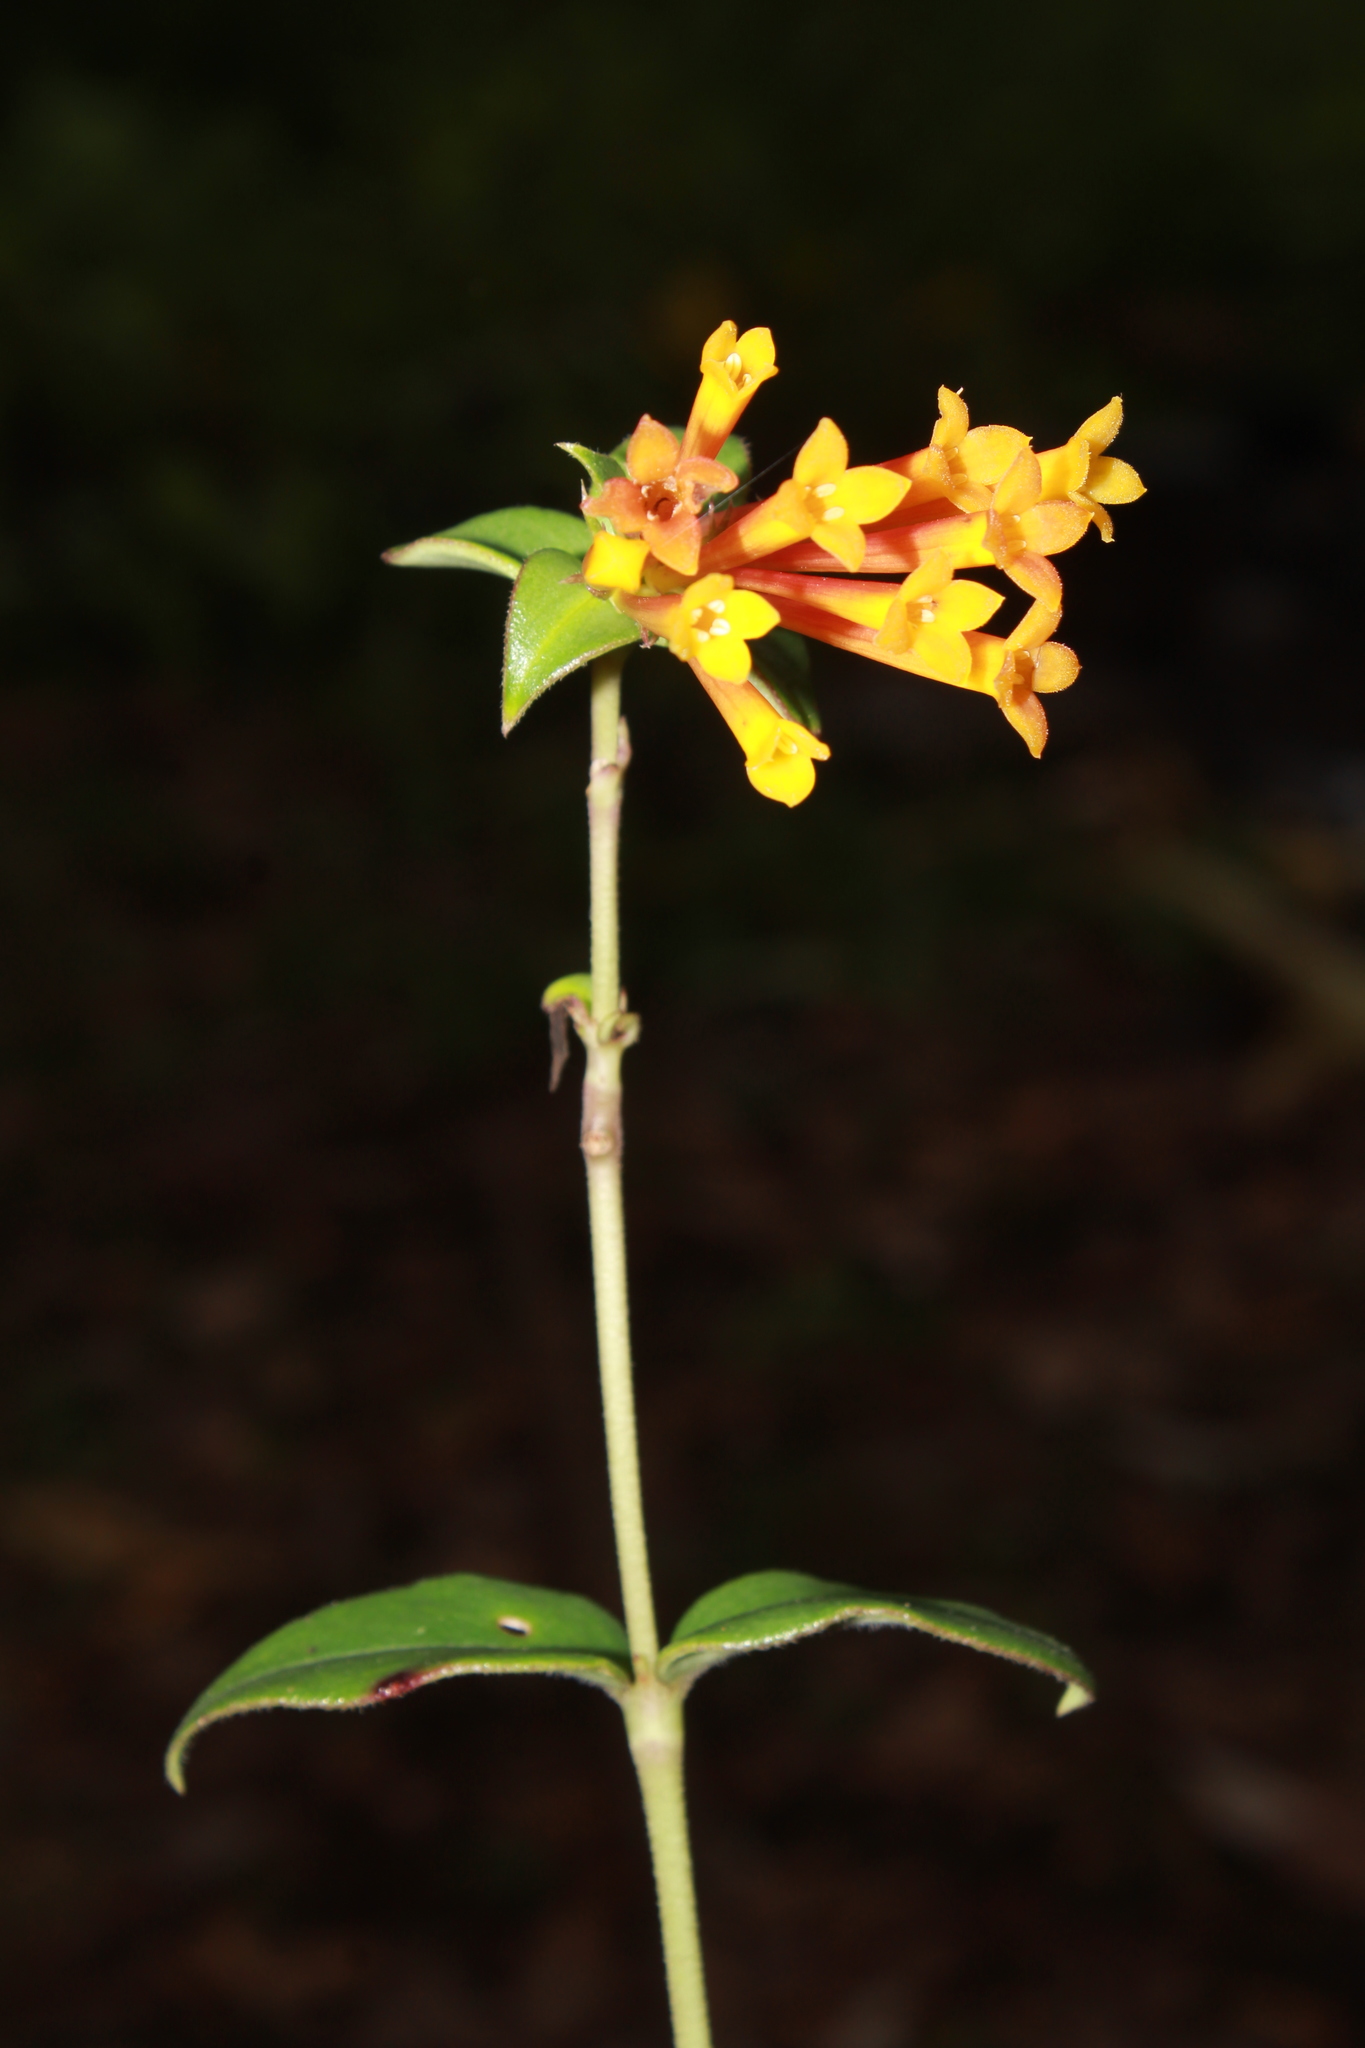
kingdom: Plantae
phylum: Tracheophyta
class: Magnoliopsida
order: Gentianales
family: Rubiaceae
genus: Bouvardia
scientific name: Bouvardia laevis
